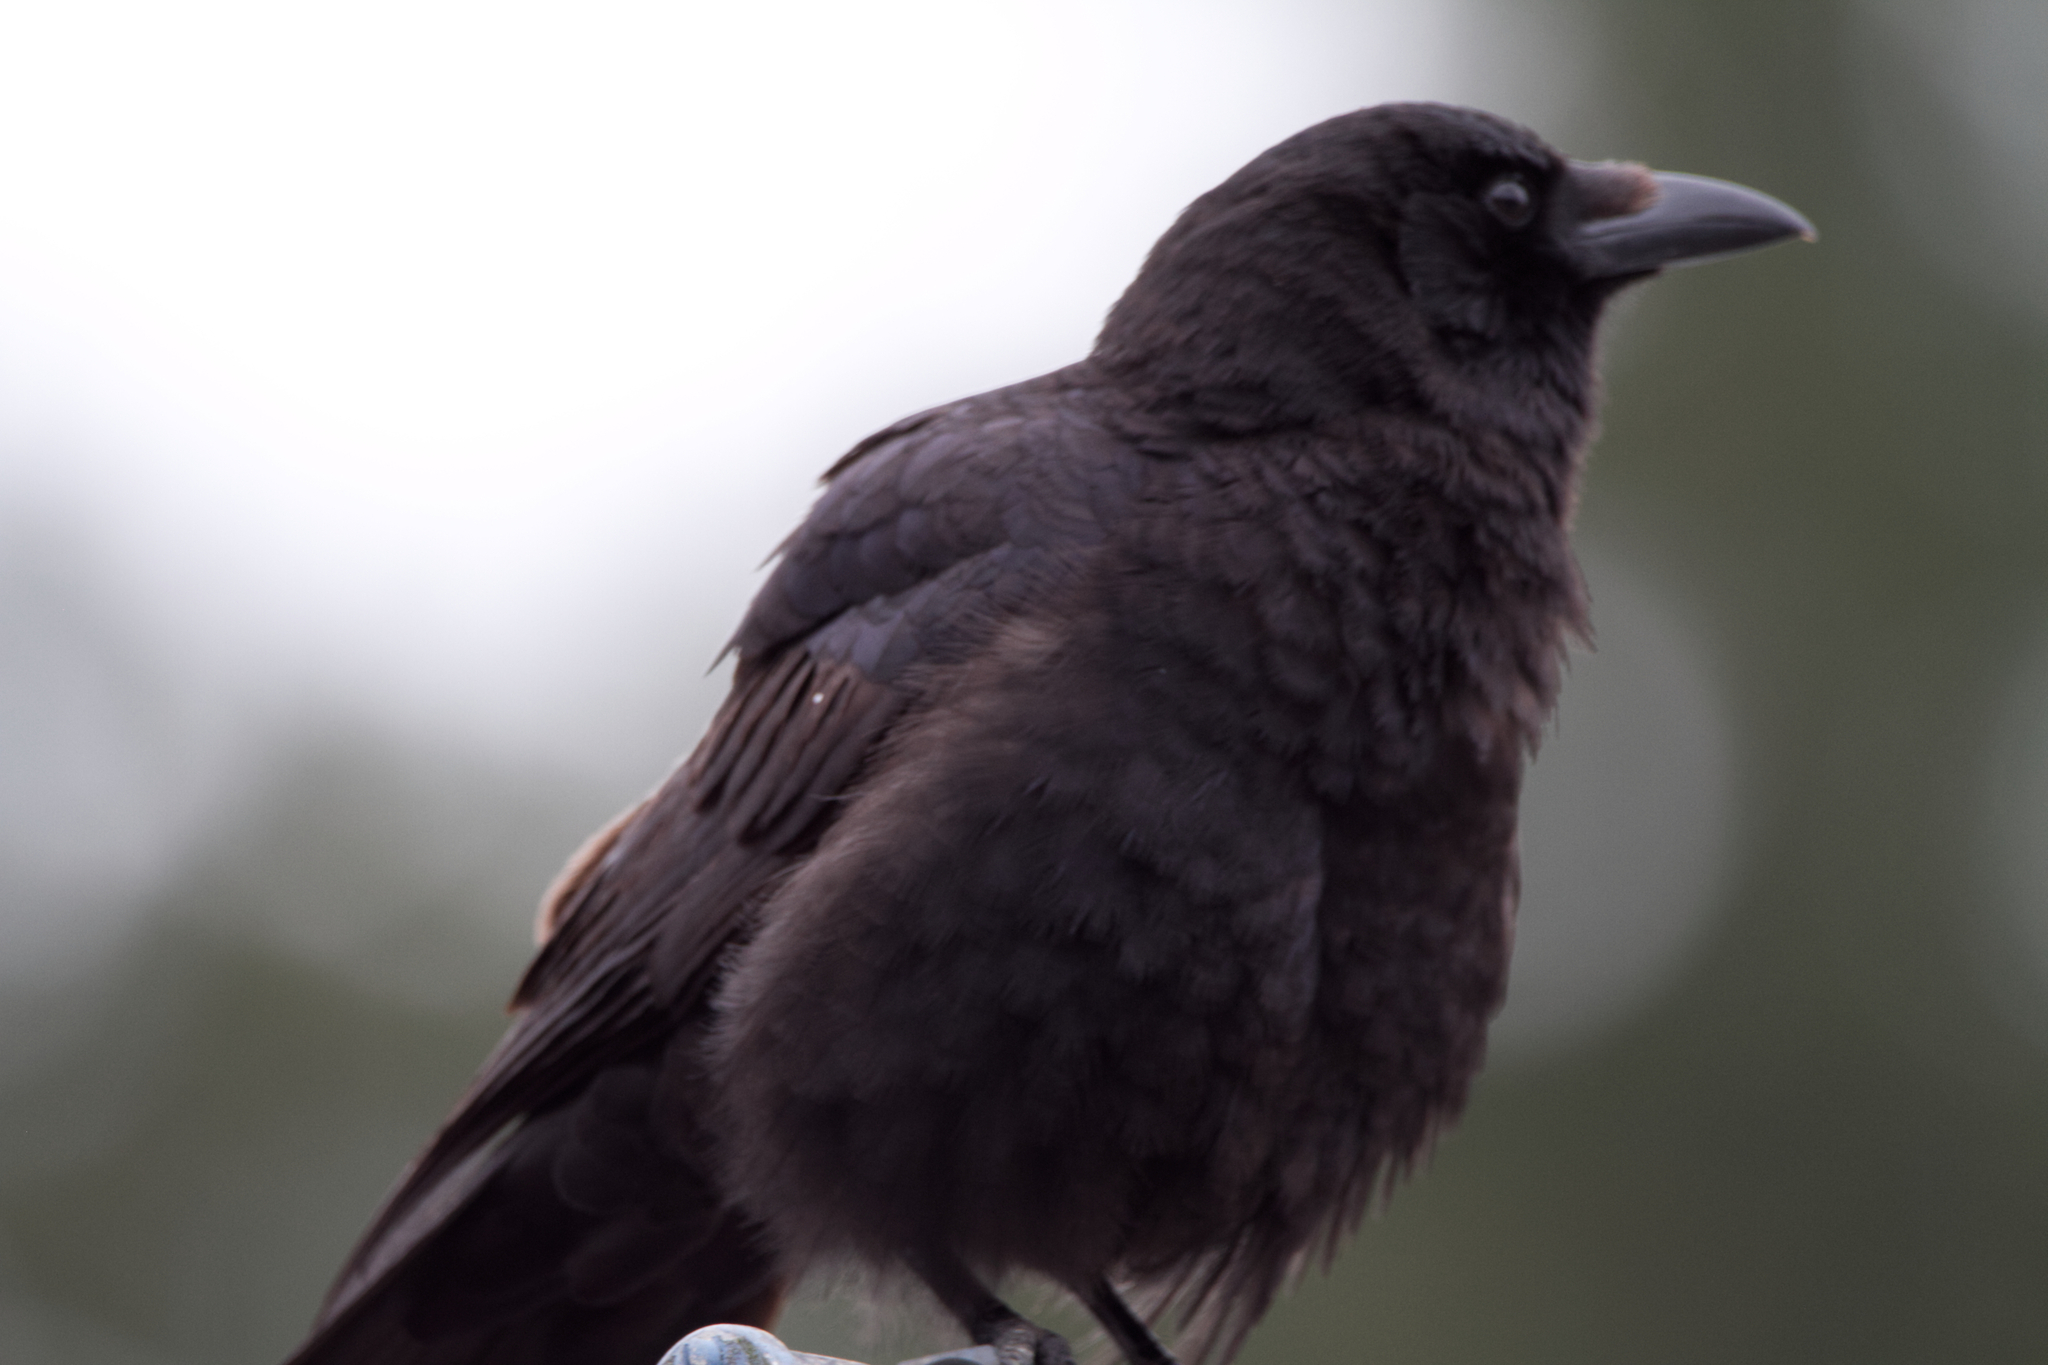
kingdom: Animalia
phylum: Chordata
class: Aves
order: Passeriformes
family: Corvidae
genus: Corvus
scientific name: Corvus brachyrhynchos
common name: American crow
